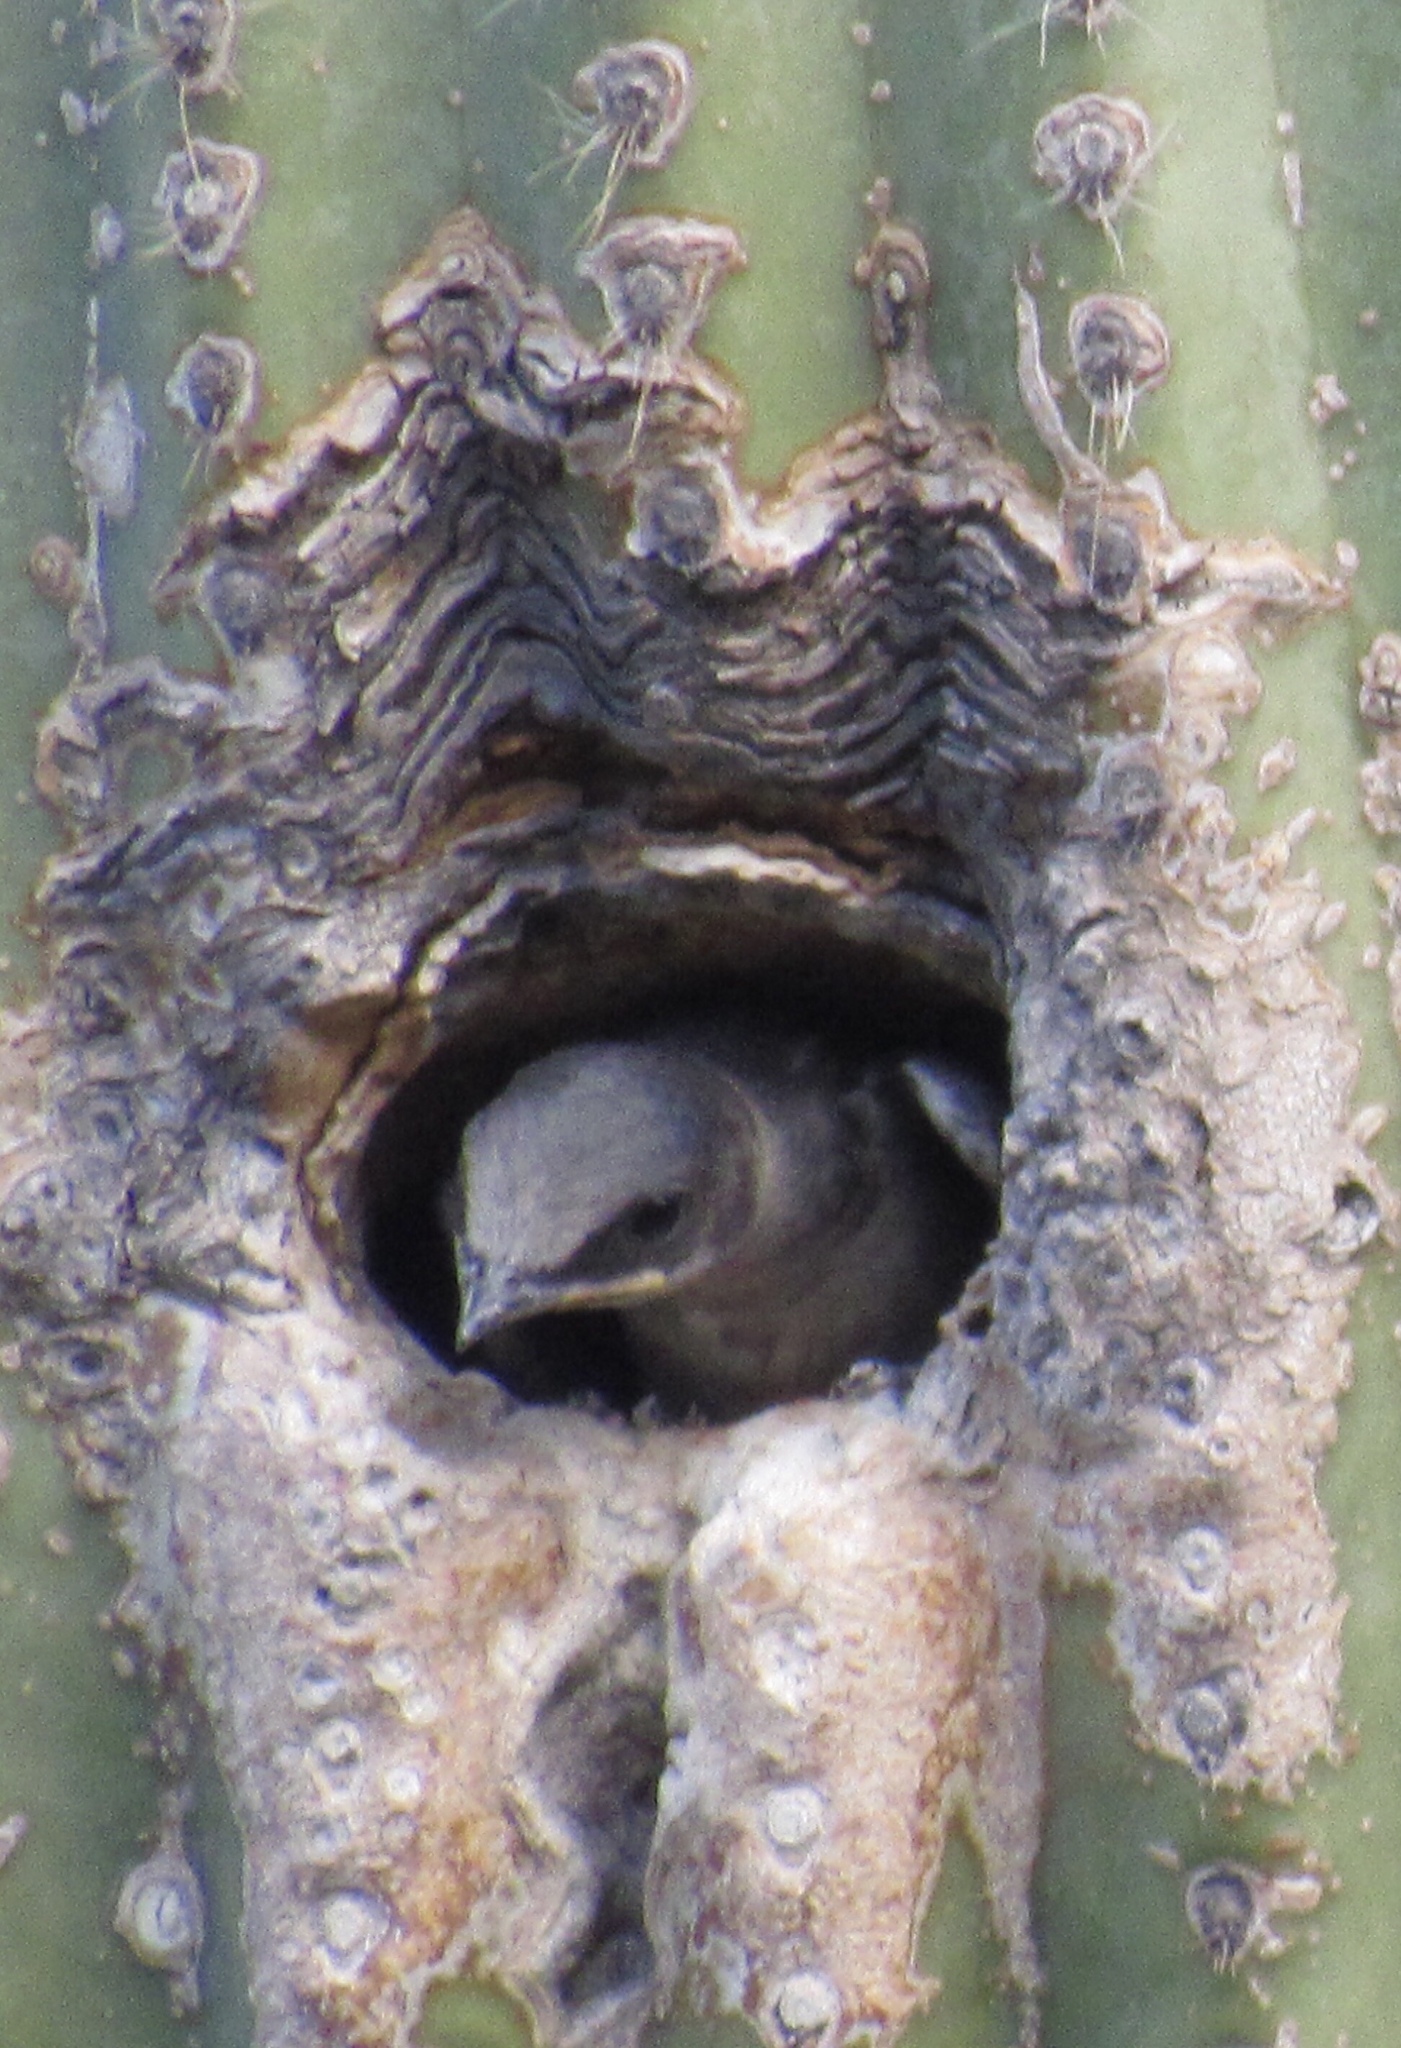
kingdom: Animalia
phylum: Chordata
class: Aves
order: Passeriformes
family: Hirundinidae
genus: Progne
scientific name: Progne subis
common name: Purple martin
